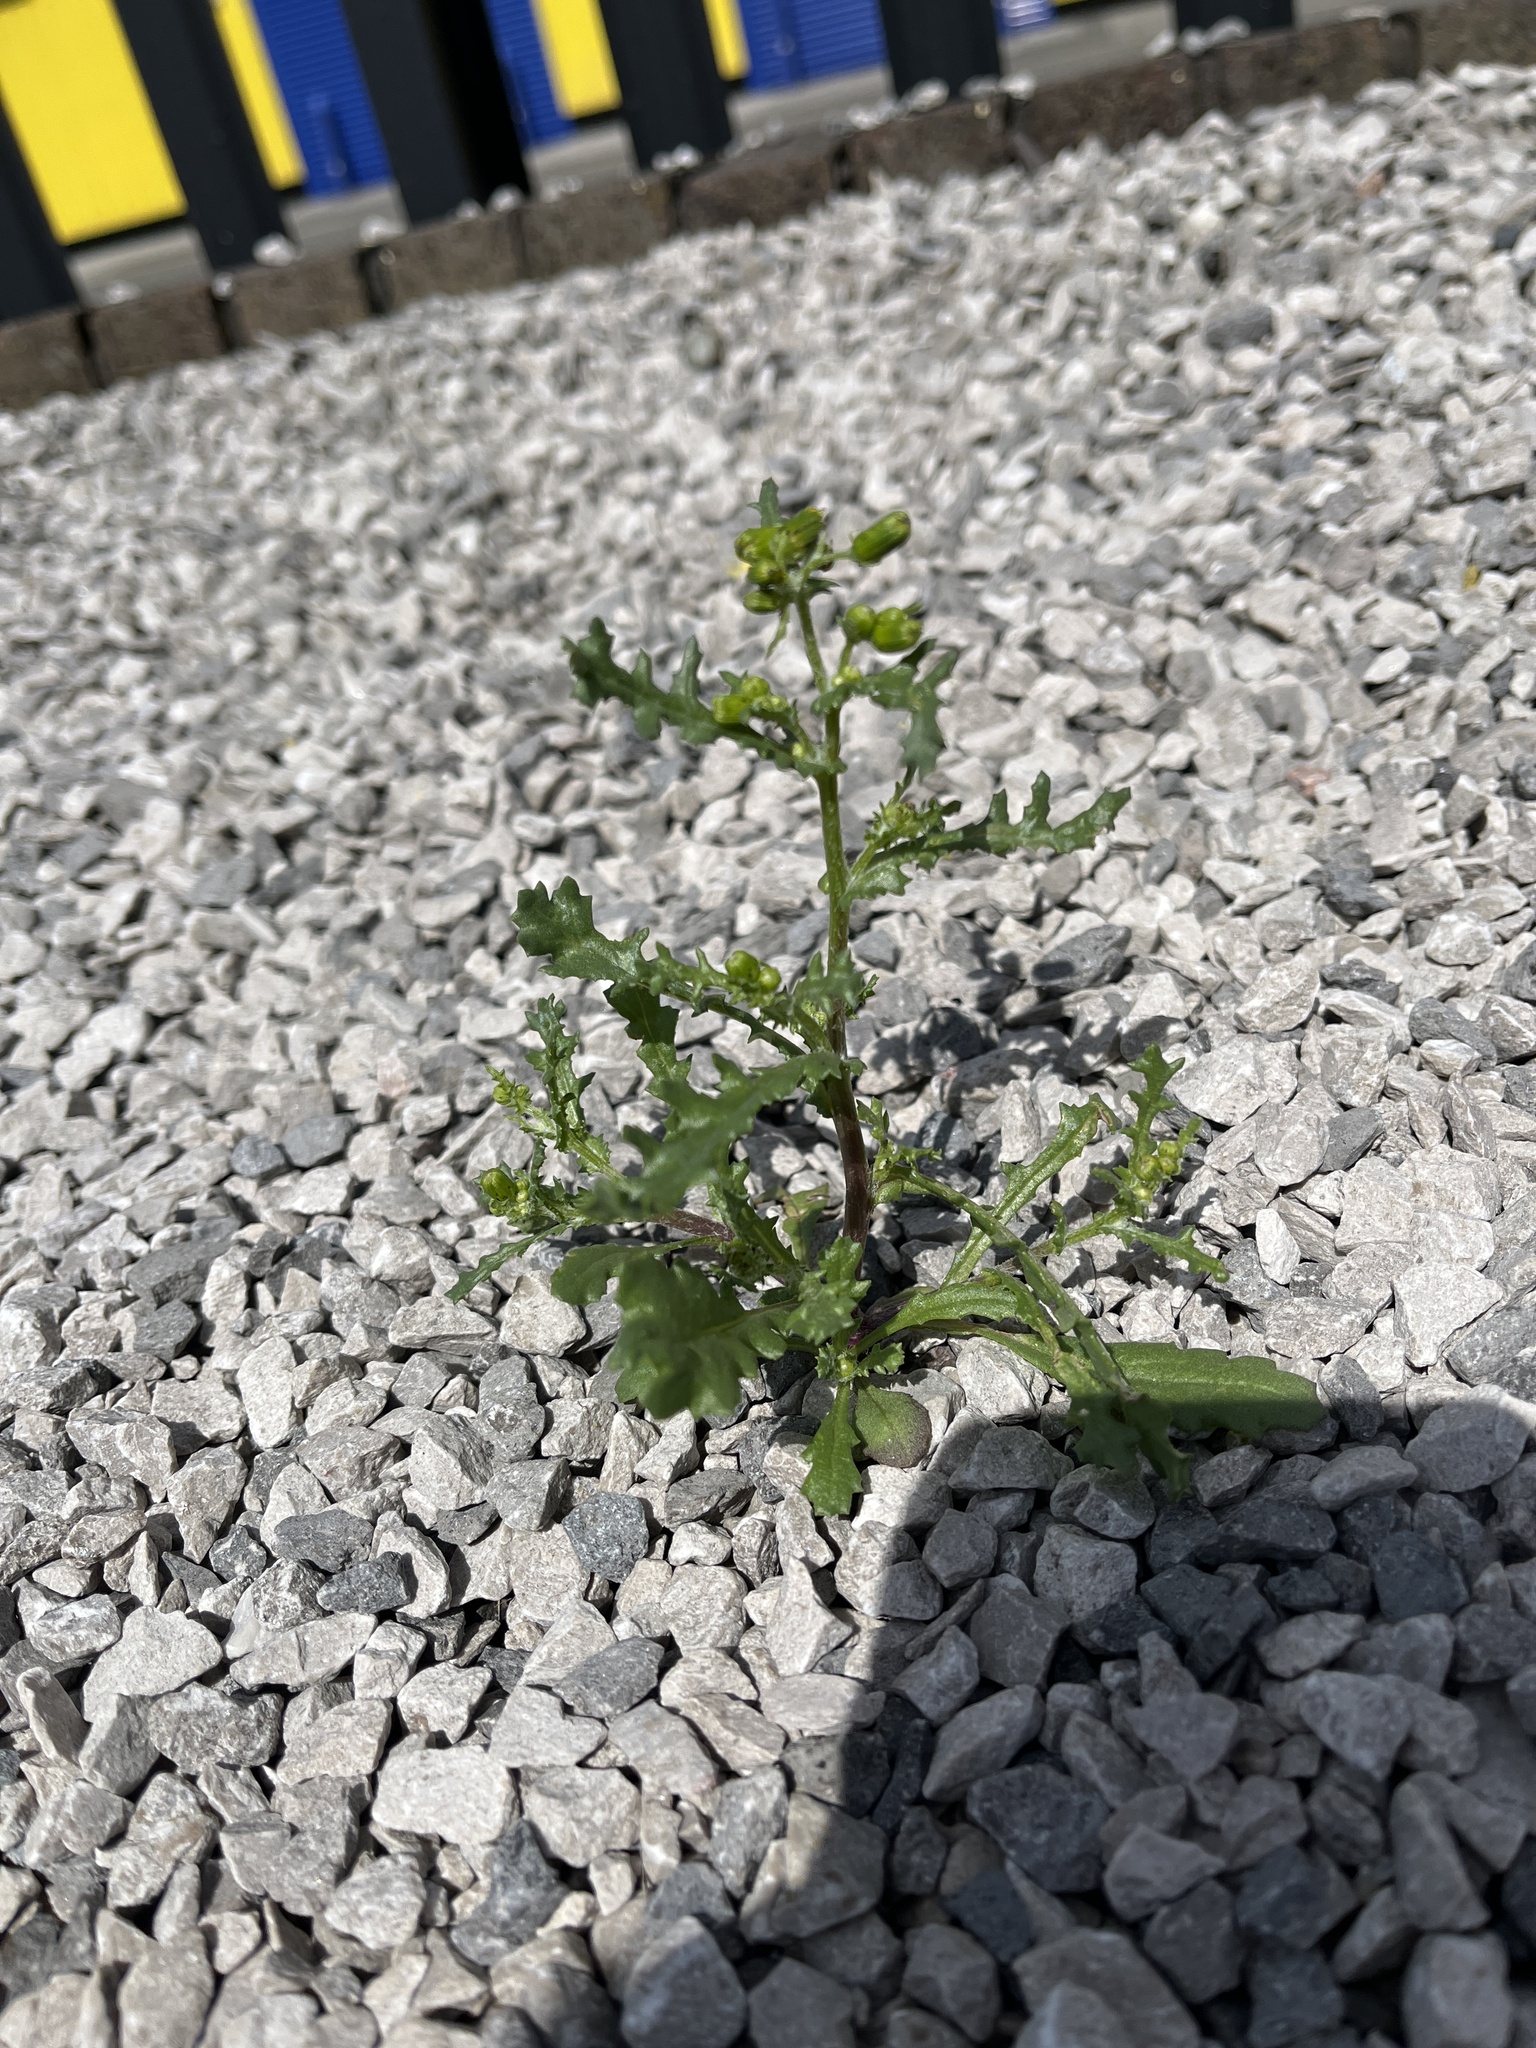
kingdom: Plantae
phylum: Tracheophyta
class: Magnoliopsida
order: Asterales
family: Asteraceae
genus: Senecio
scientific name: Senecio vulgaris
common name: Old-man-in-the-spring
